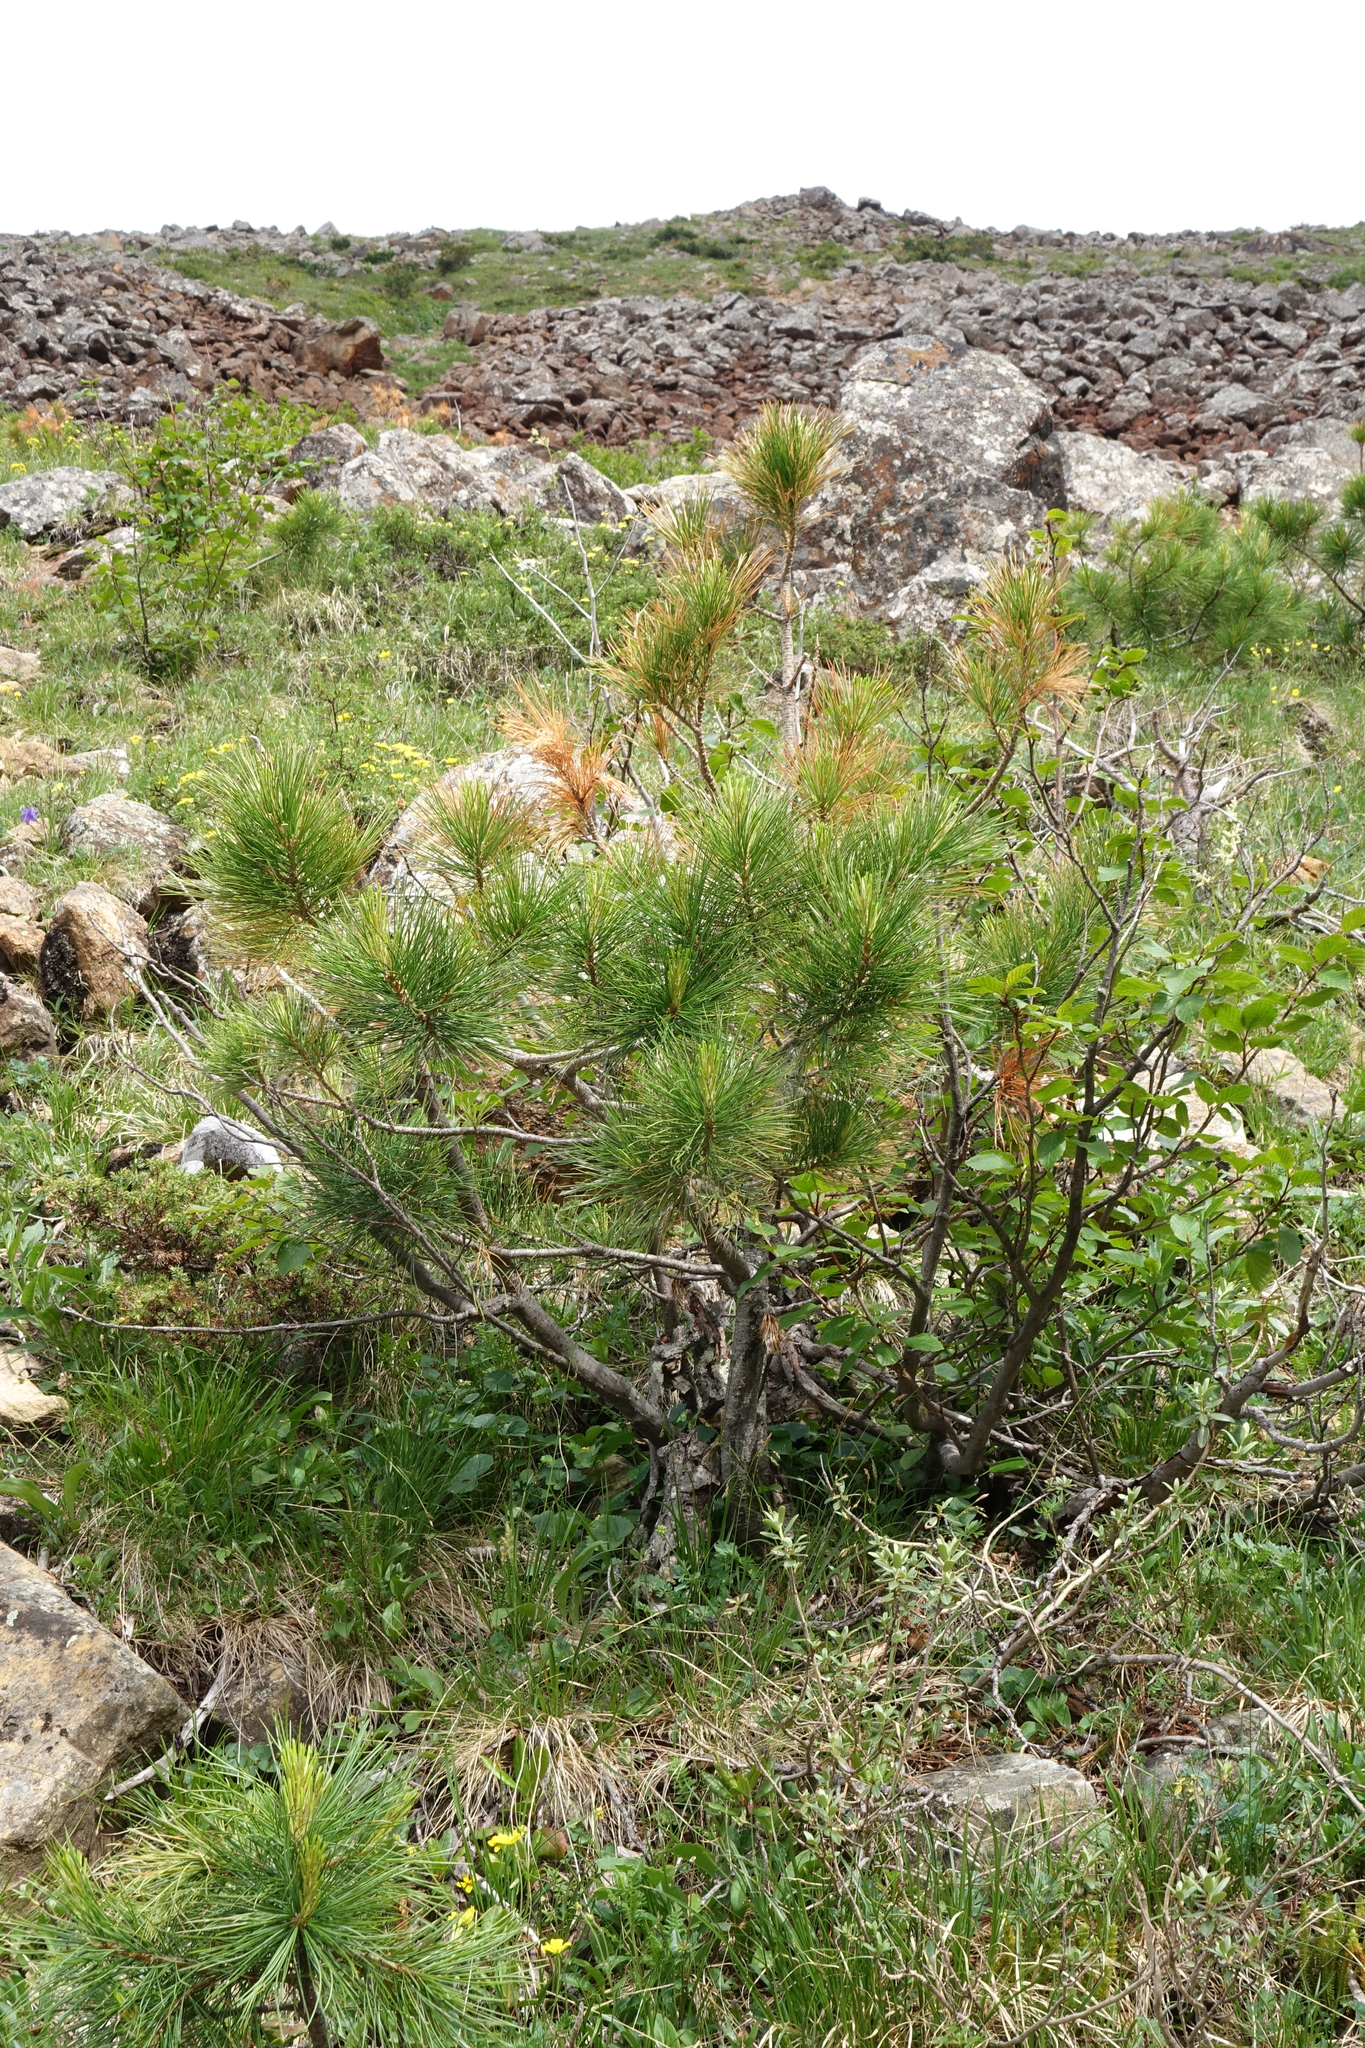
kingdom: Plantae
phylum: Tracheophyta
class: Pinopsida
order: Pinales
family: Pinaceae
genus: Pinus
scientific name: Pinus sibirica
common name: Siberian pine
